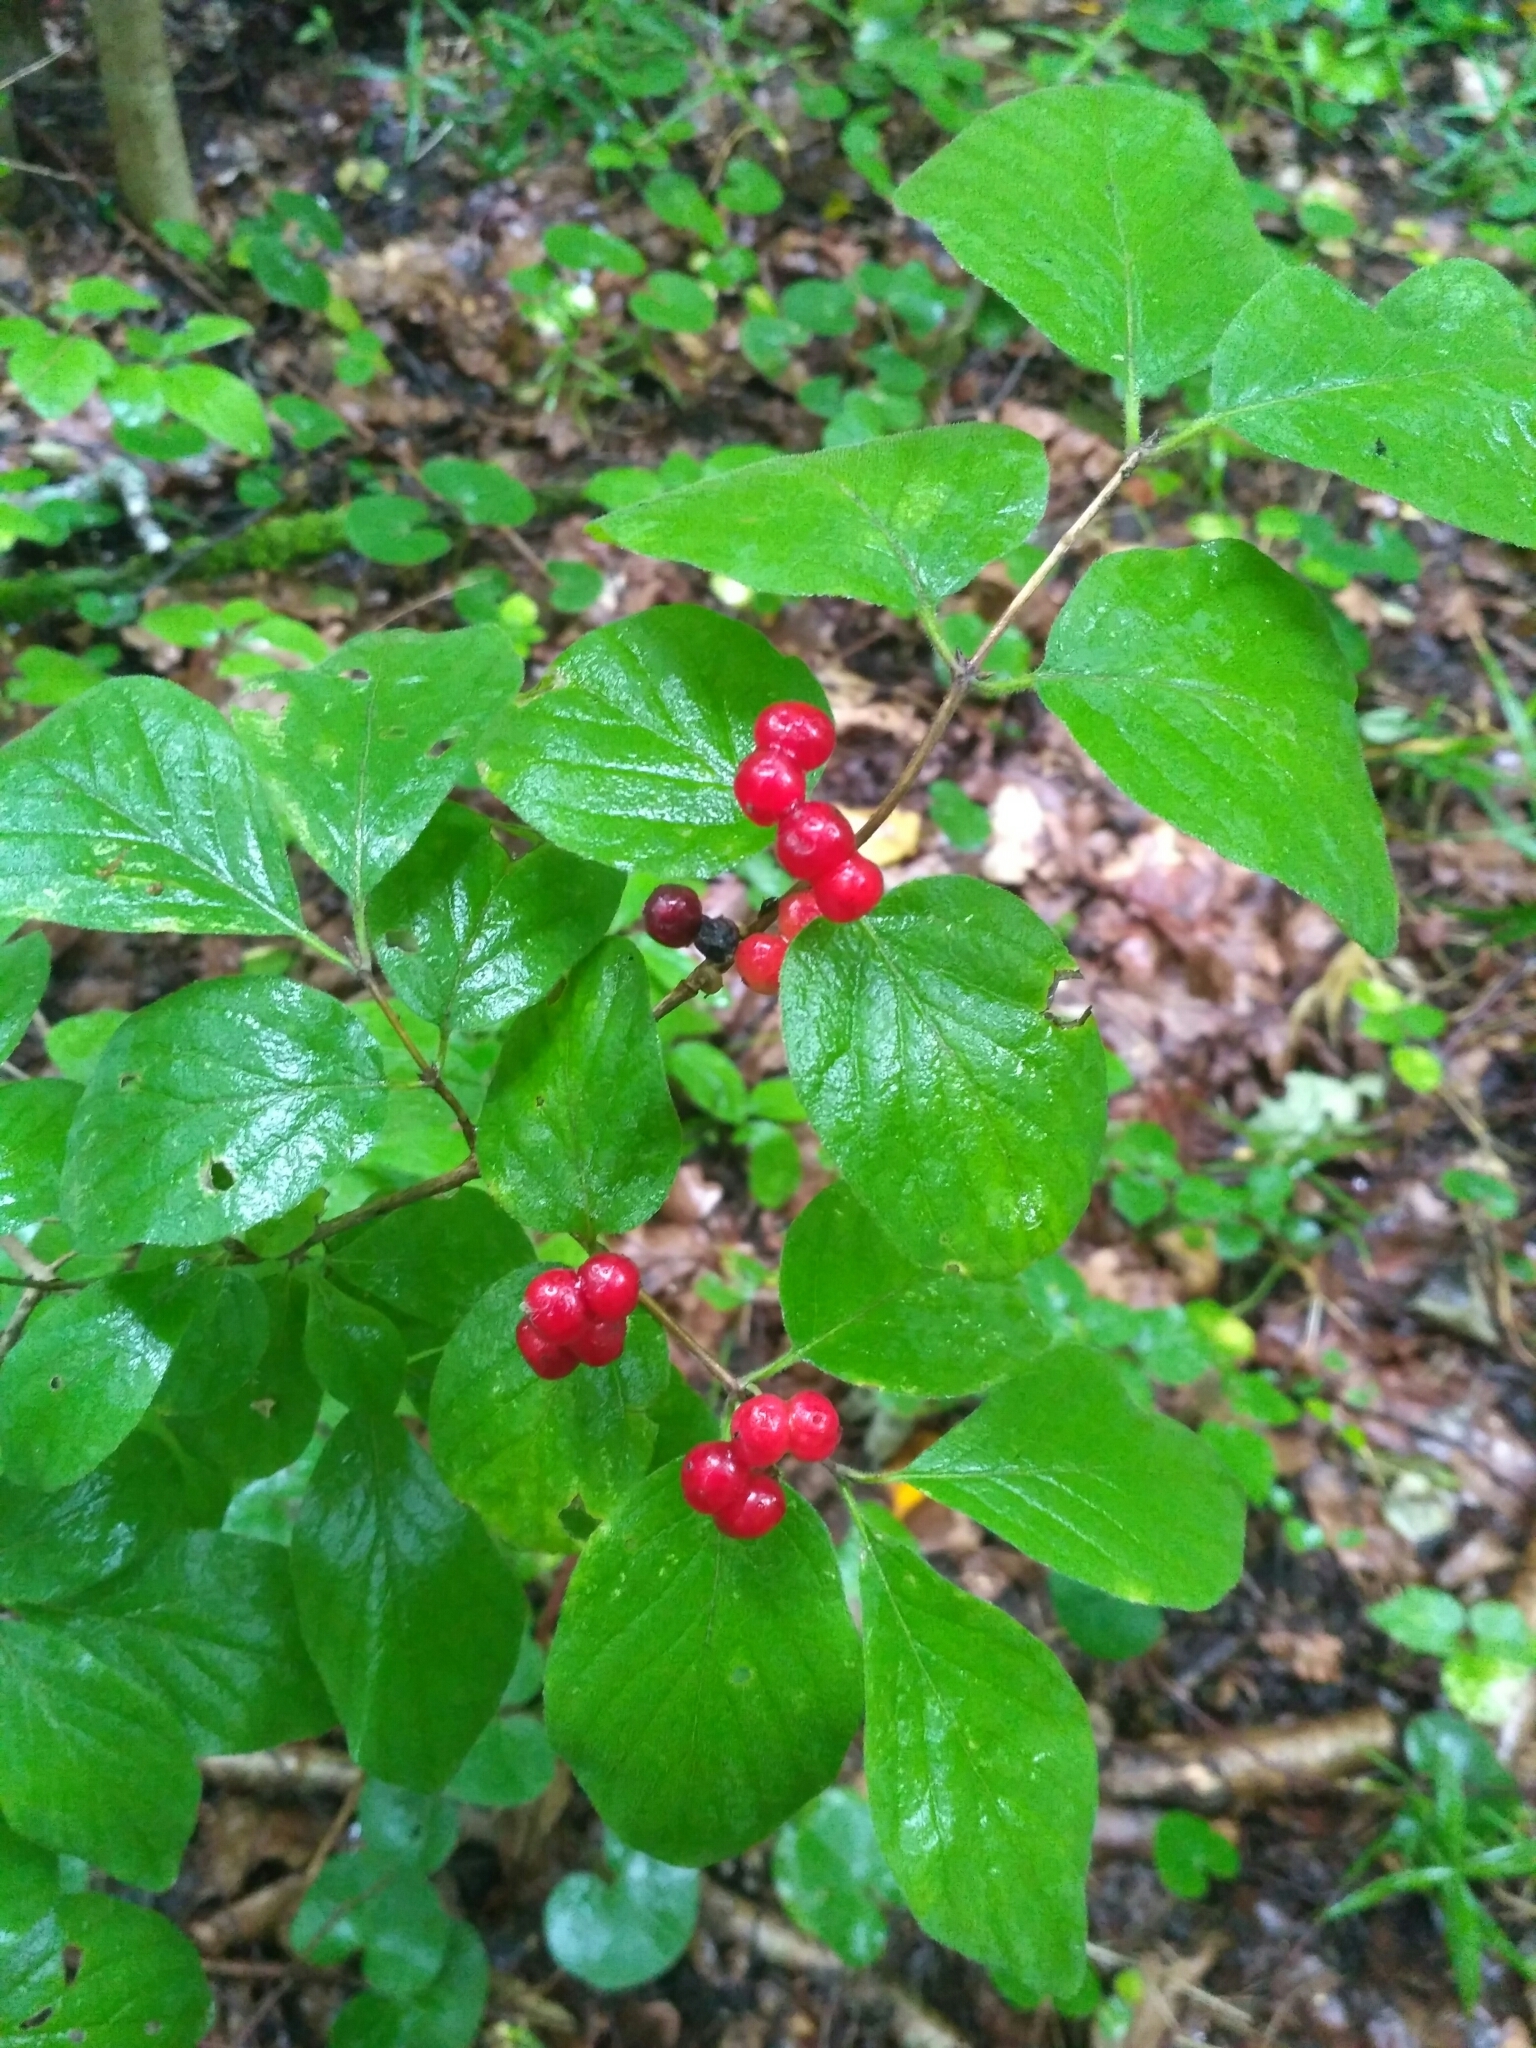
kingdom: Plantae
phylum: Tracheophyta
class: Magnoliopsida
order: Dipsacales
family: Caprifoliaceae
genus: Lonicera
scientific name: Lonicera xylosteum
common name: Fly honeysuckle
